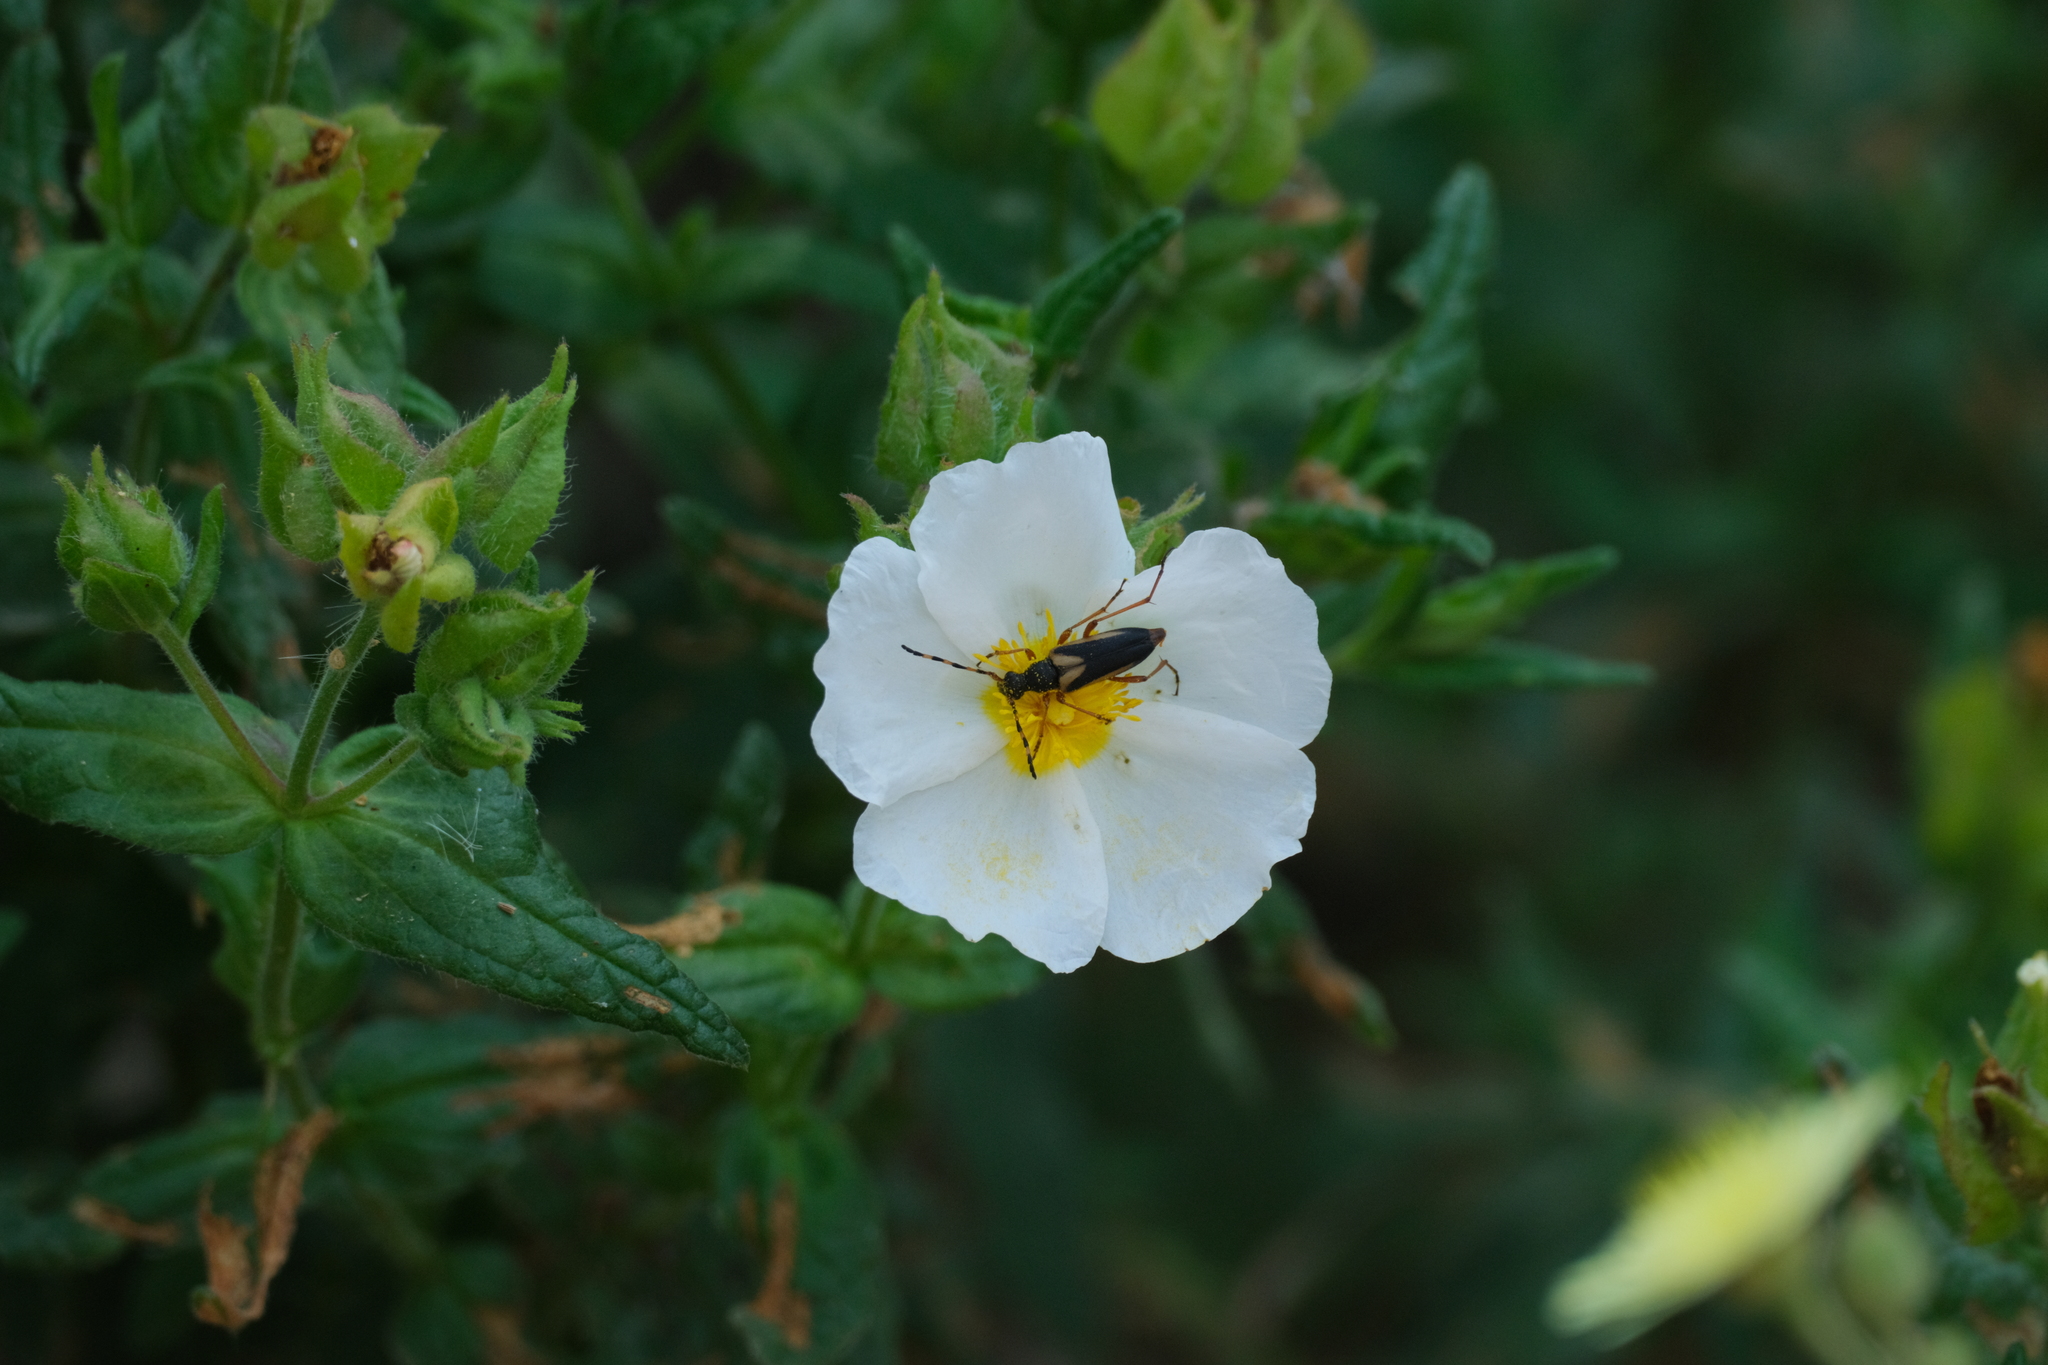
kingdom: Animalia
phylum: Arthropoda
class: Insecta
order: Coleoptera
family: Cerambycidae
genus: Stictoleptura
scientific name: Stictoleptura stragulata
